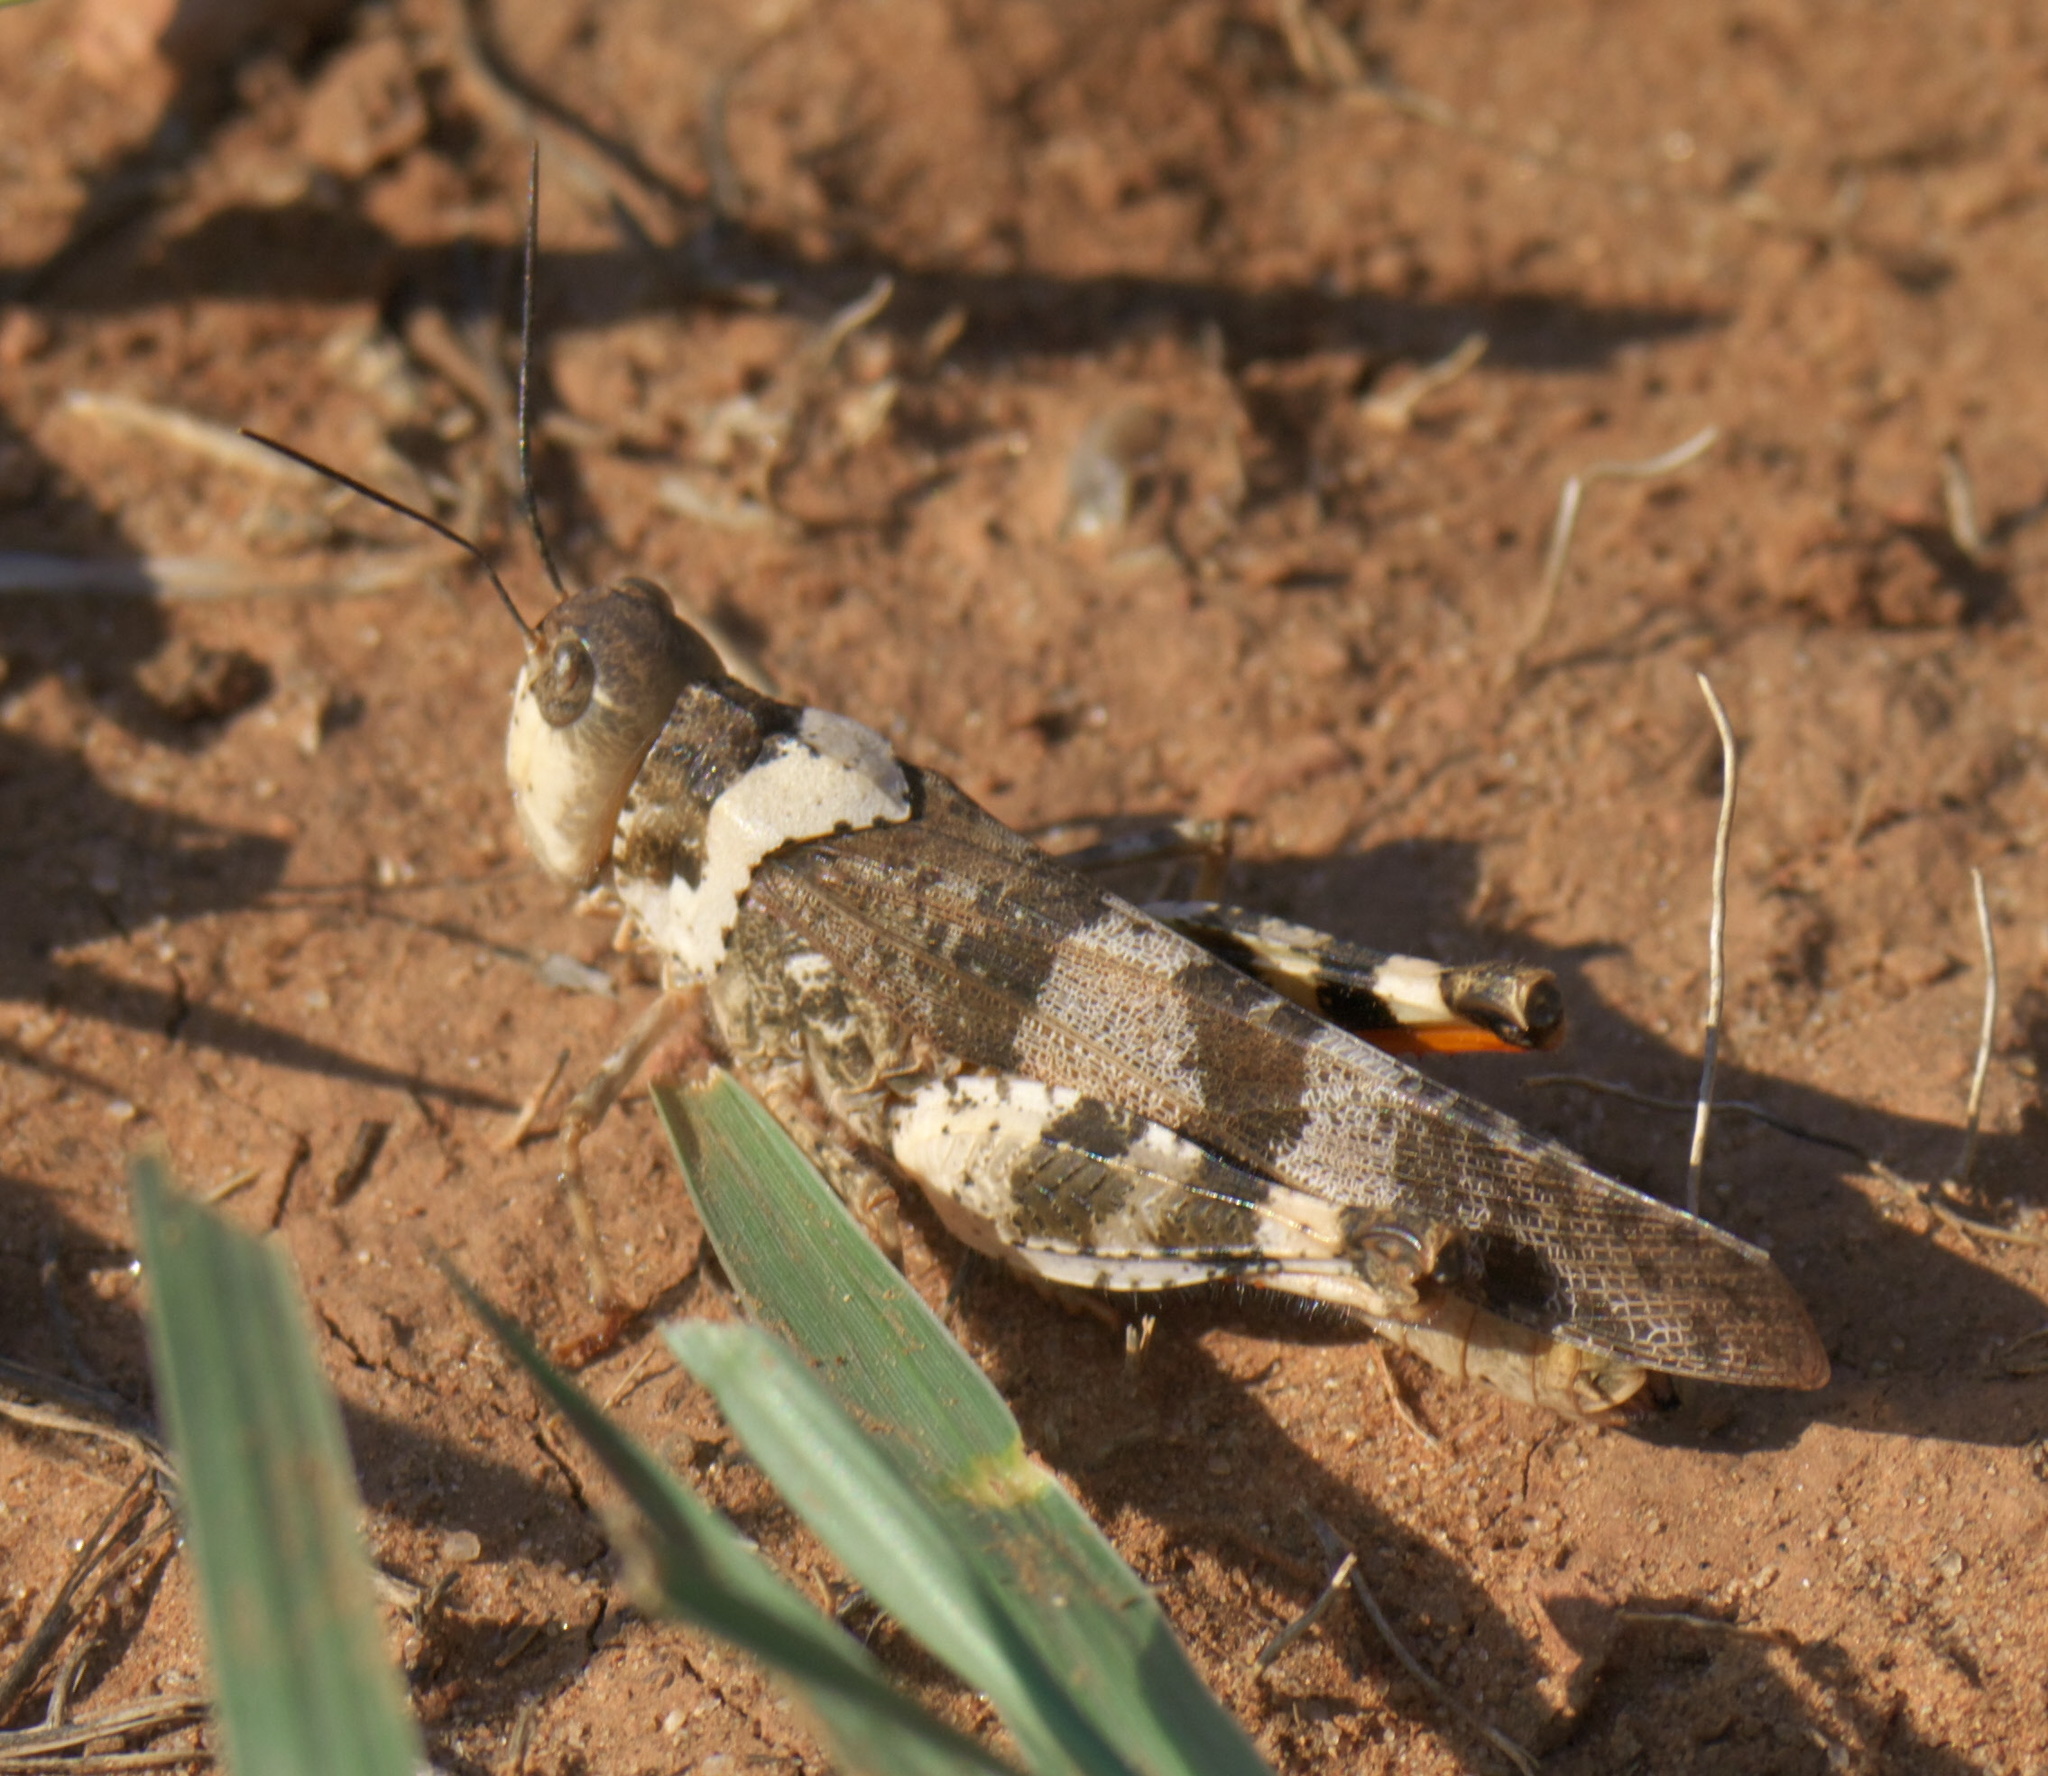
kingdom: Animalia
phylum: Arthropoda
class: Insecta
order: Orthoptera
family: Acrididae
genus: Spharagemon
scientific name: Spharagemon equale
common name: Orange-legged grasshopper
